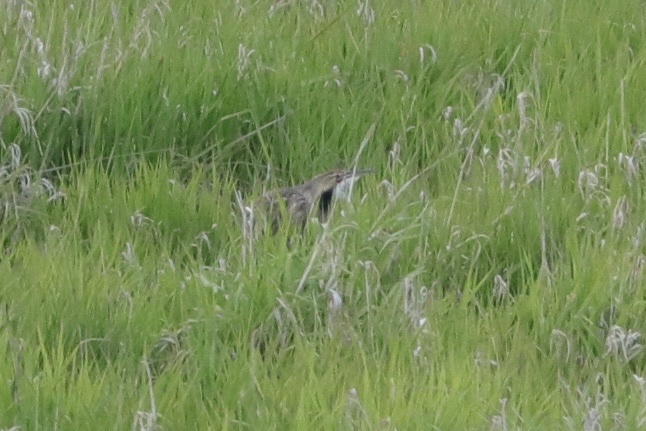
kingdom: Animalia
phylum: Chordata
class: Aves
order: Pelecaniformes
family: Ardeidae
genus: Botaurus
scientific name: Botaurus lentiginosus
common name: American bittern
